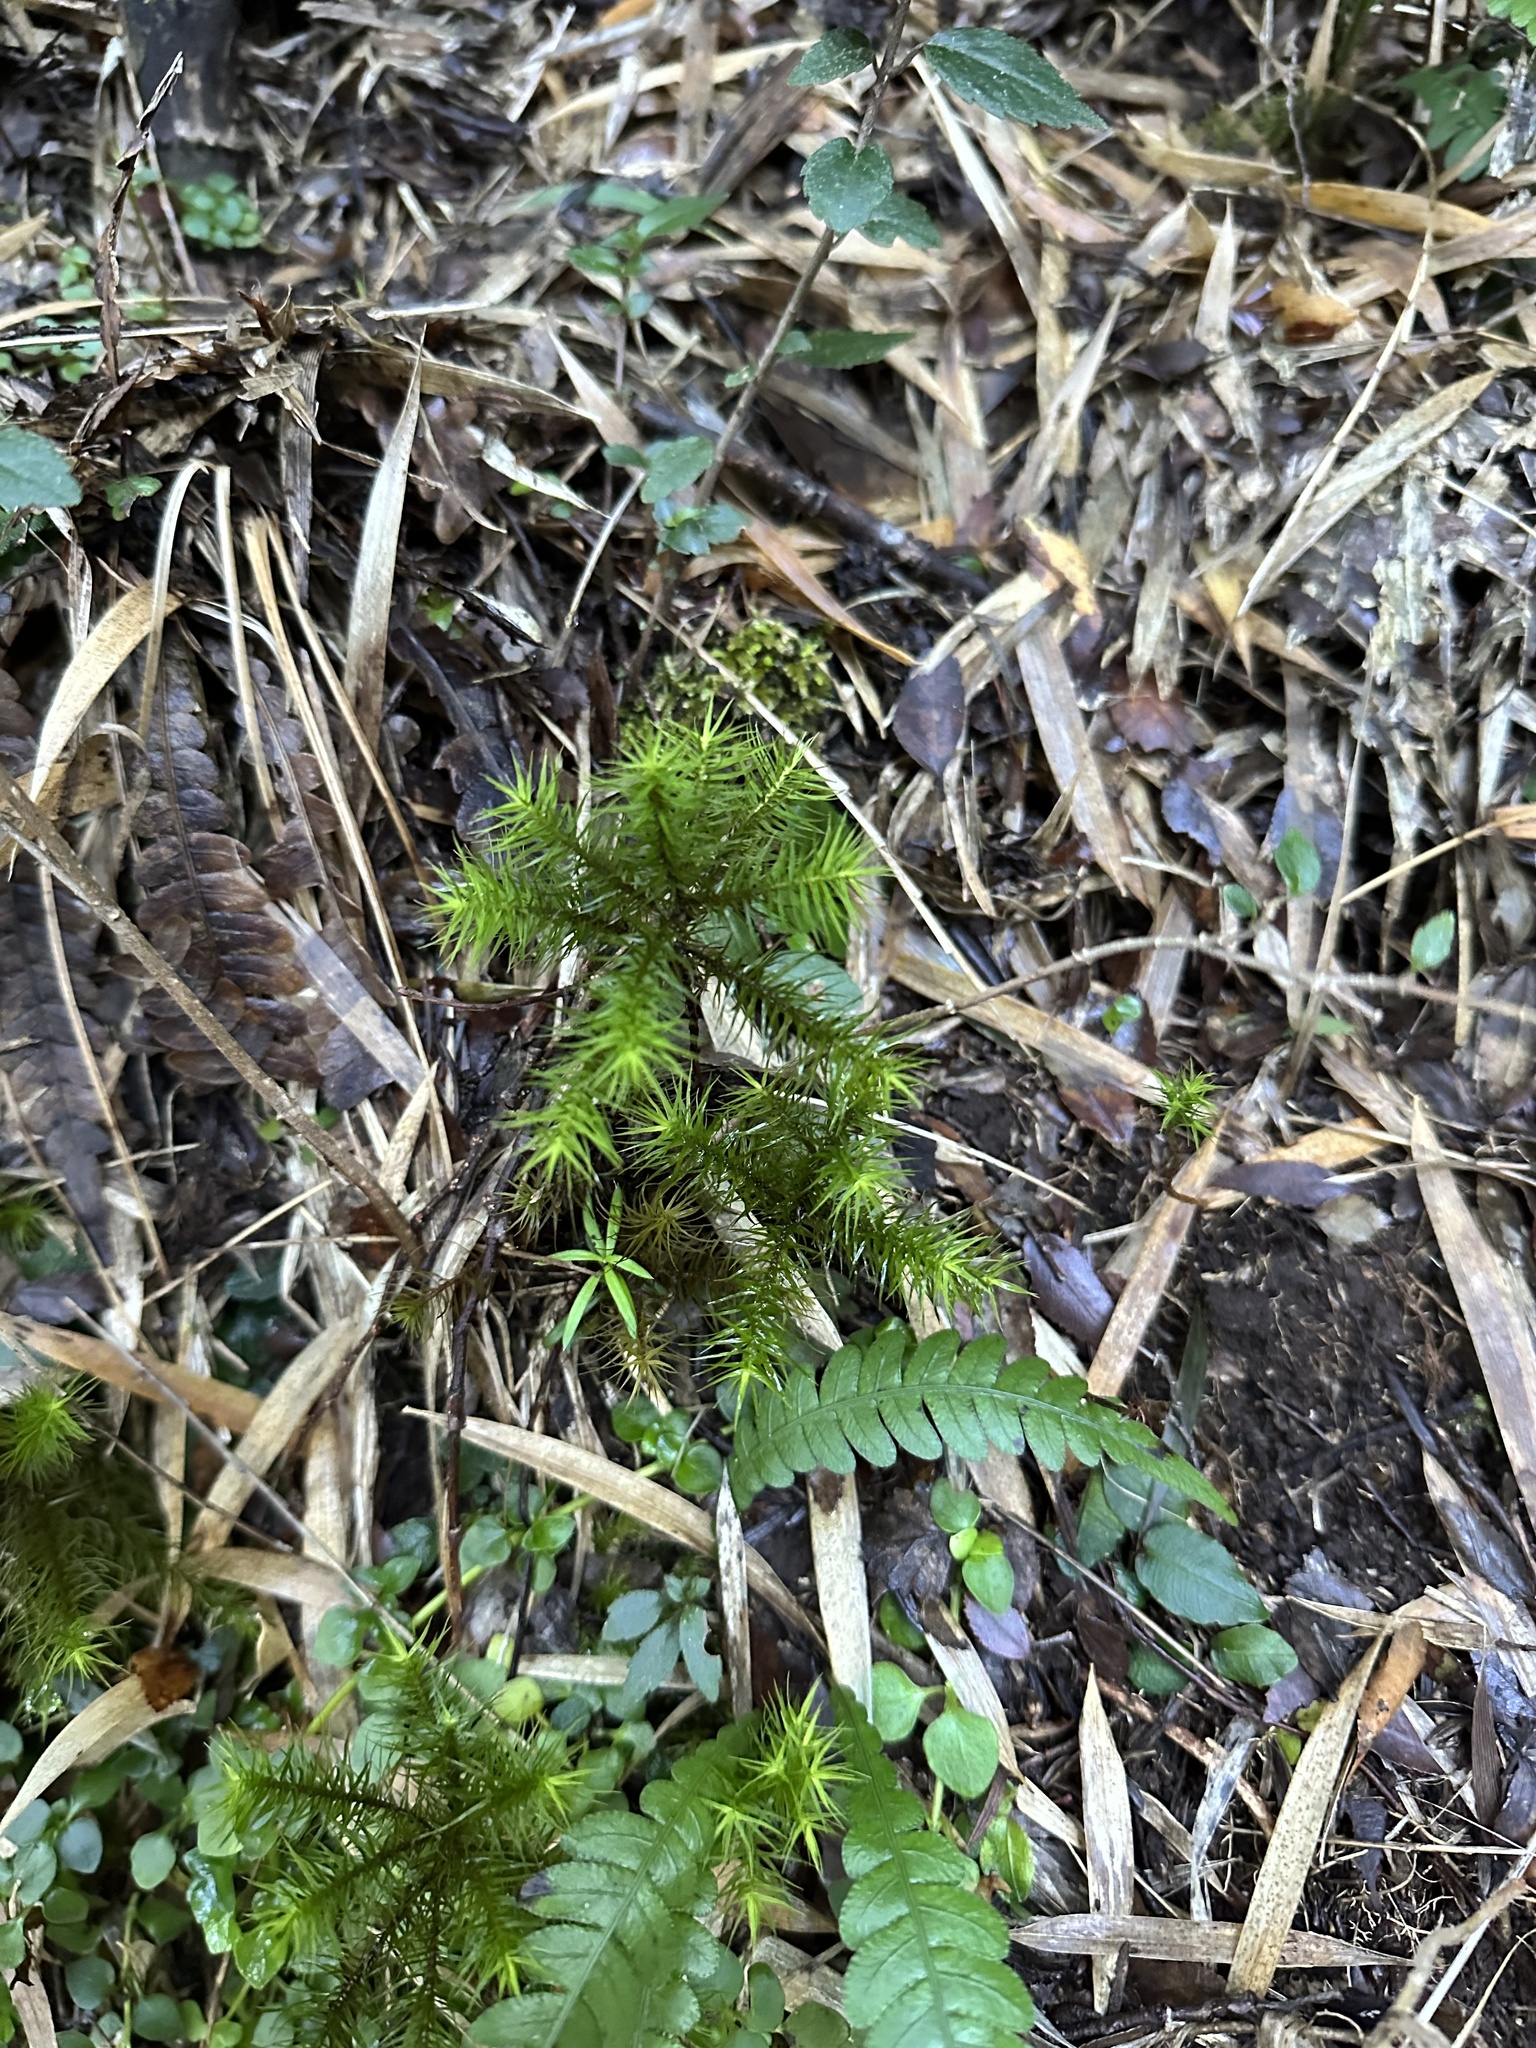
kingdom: Plantae
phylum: Bryophyta
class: Polytrichopsida
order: Polytrichales
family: Polytrichaceae
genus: Dendroligotrichum
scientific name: Dendroligotrichum dendroides
